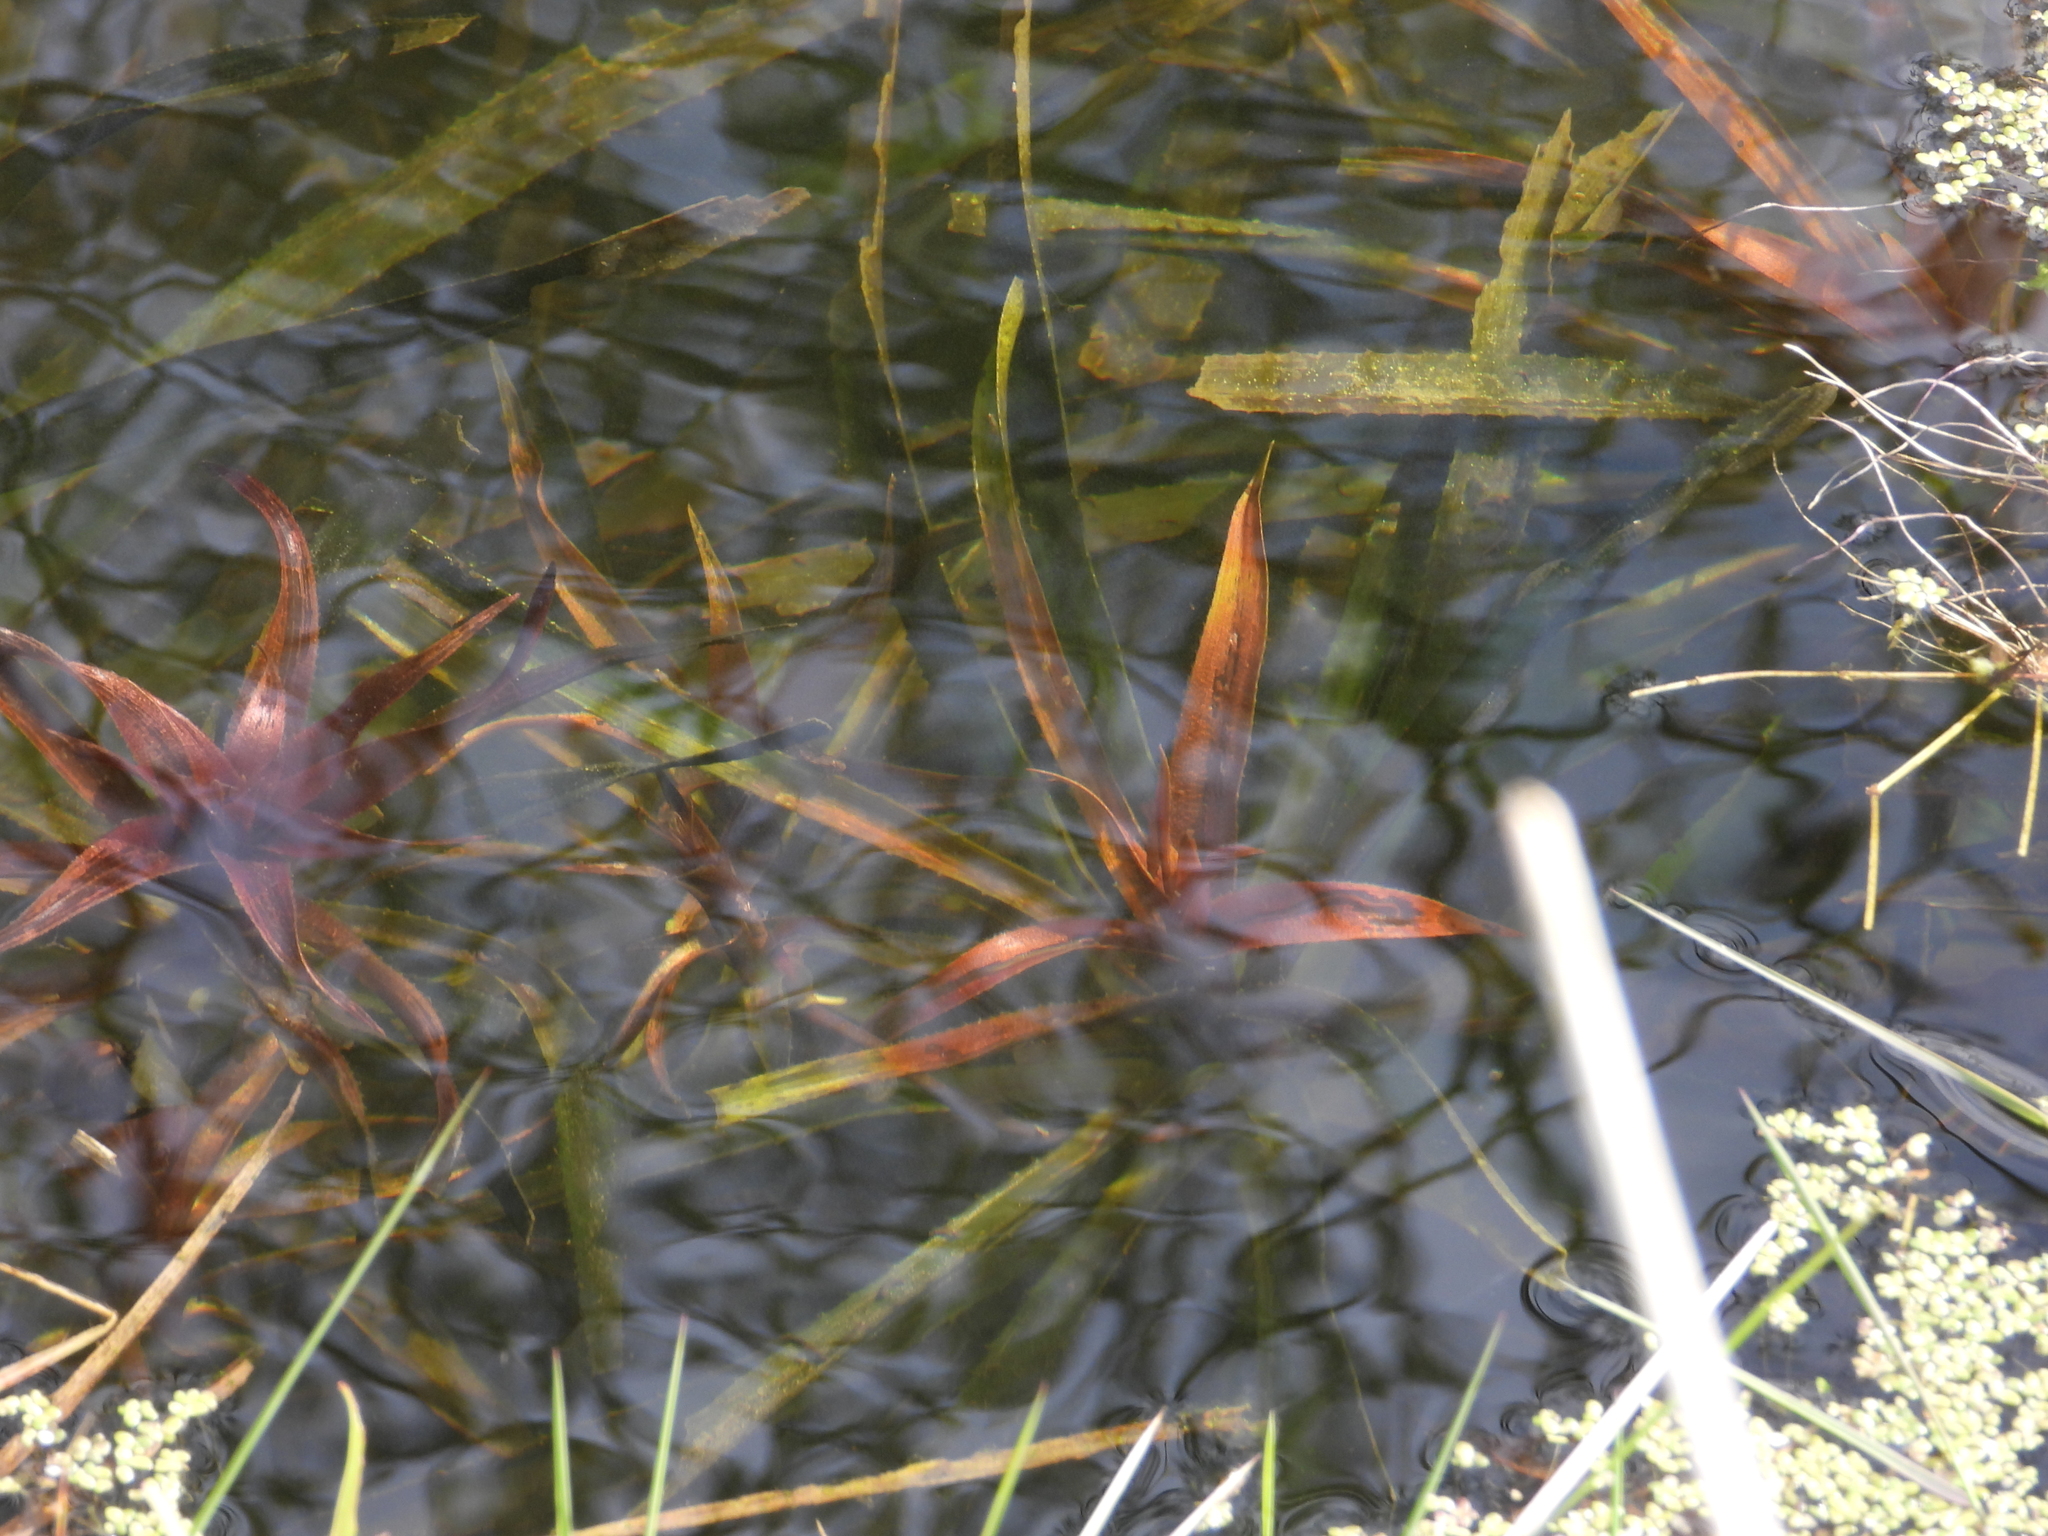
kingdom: Plantae
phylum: Tracheophyta
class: Liliopsida
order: Alismatales
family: Hydrocharitaceae
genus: Stratiotes
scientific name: Stratiotes aloides
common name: Water-soldier
